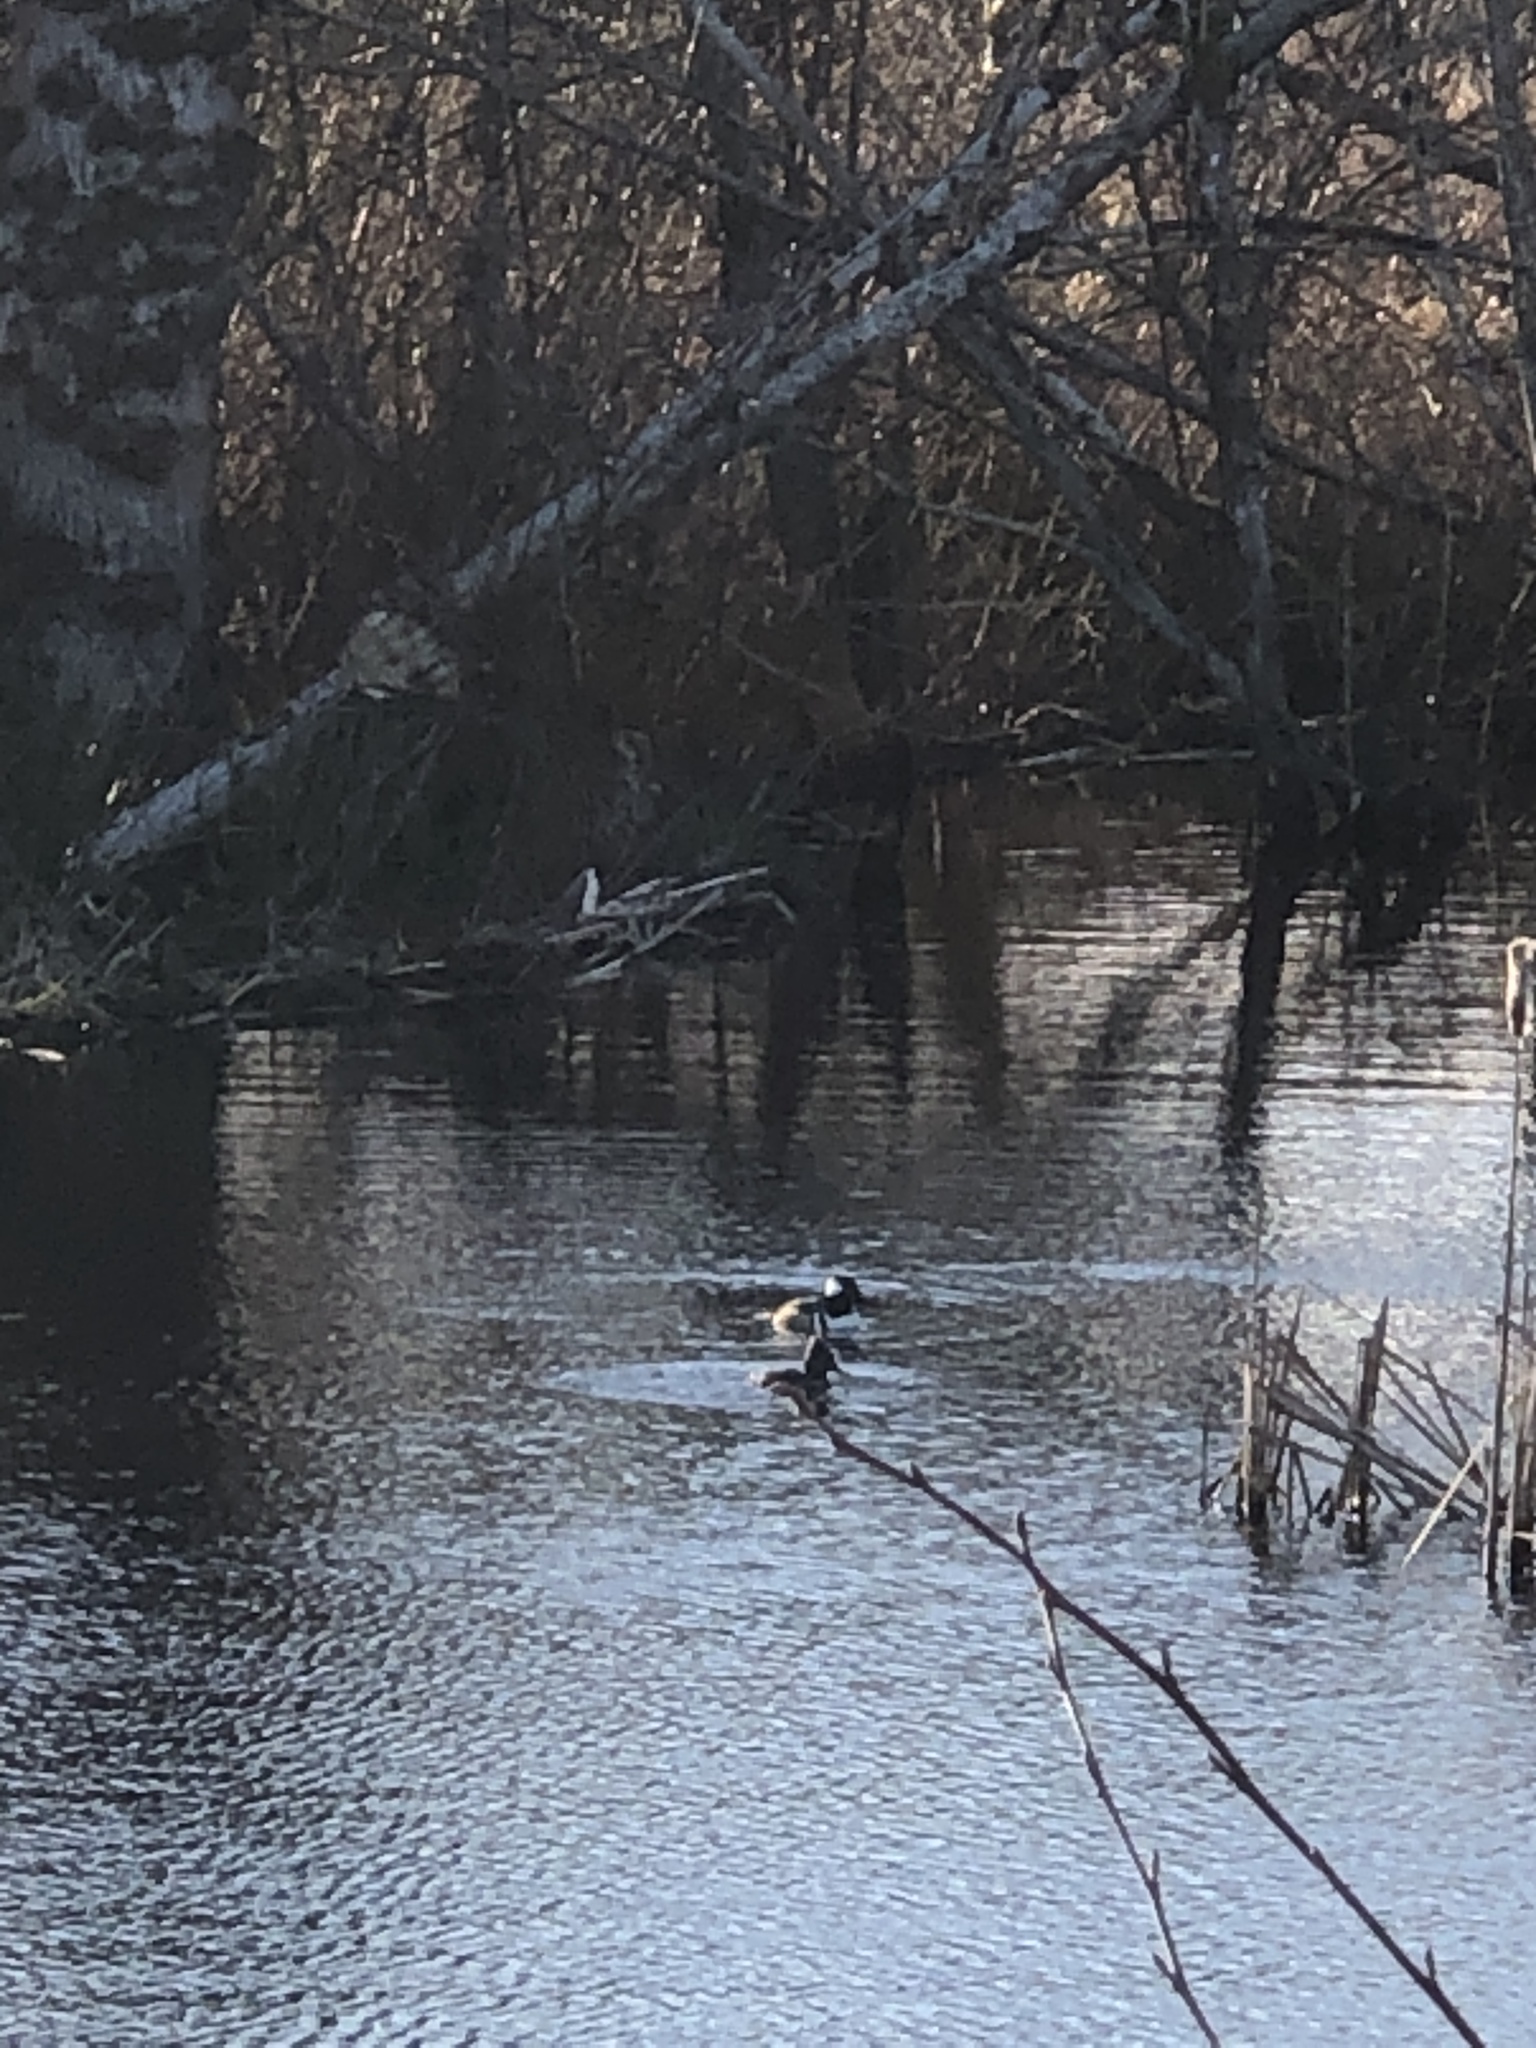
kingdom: Animalia
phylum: Chordata
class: Aves
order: Anseriformes
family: Anatidae
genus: Lophodytes
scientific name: Lophodytes cucullatus
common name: Hooded merganser
